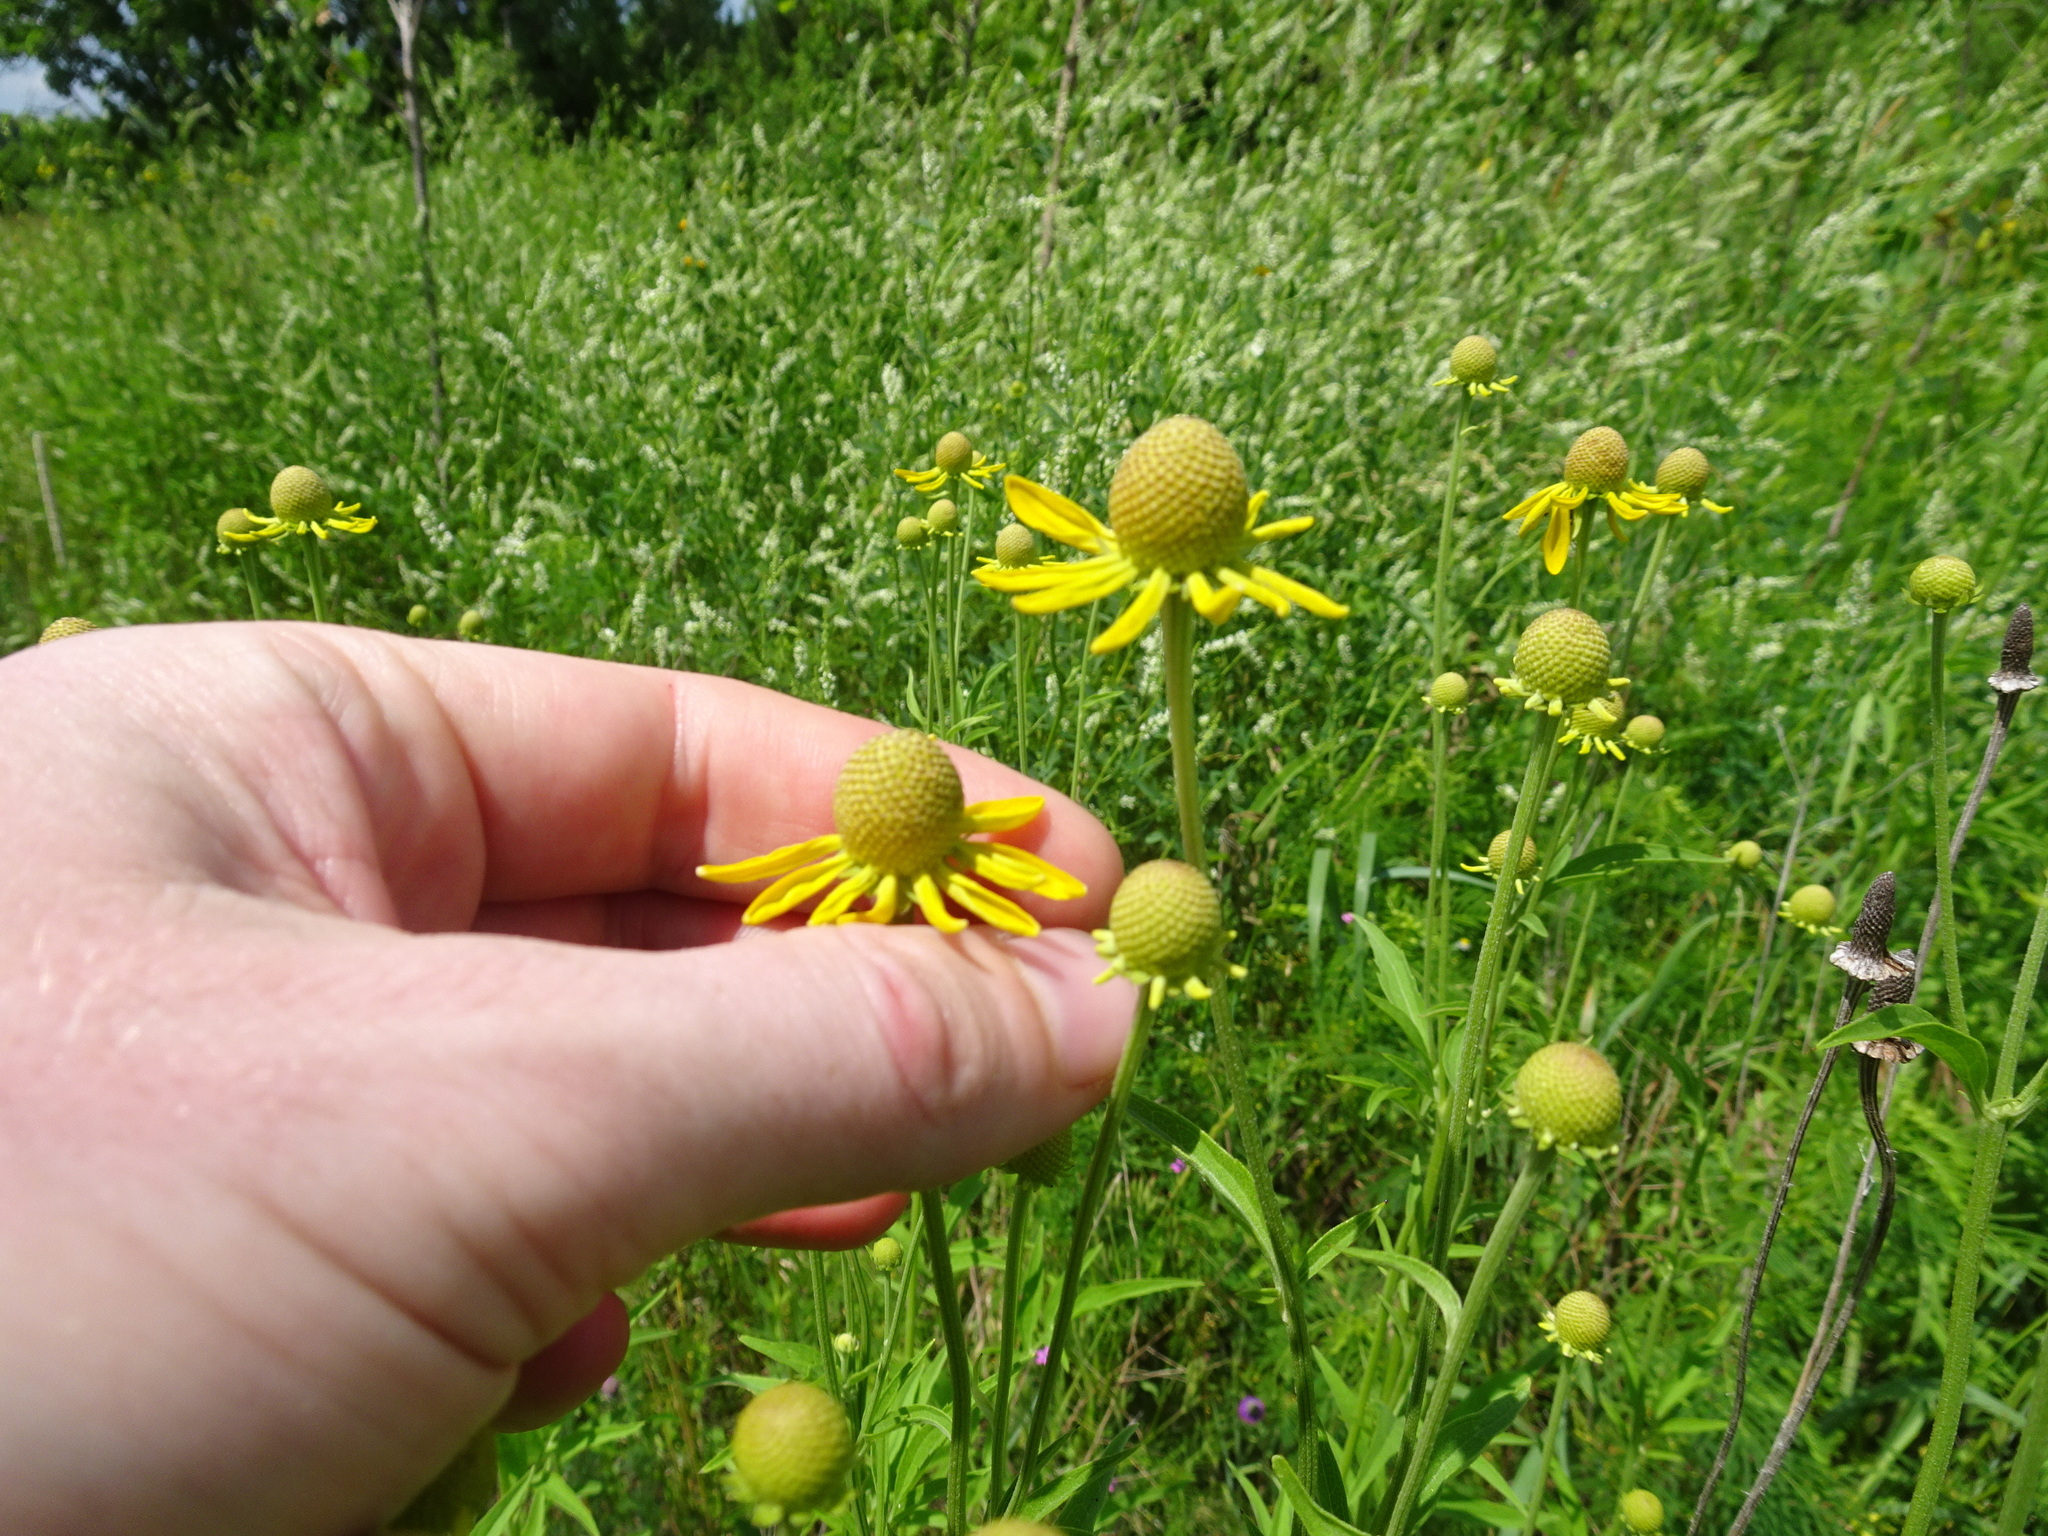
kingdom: Plantae
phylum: Tracheophyta
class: Magnoliopsida
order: Asterales
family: Asteraceae
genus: Ratibida
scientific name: Ratibida pinnata
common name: Drooping prairie-coneflower
